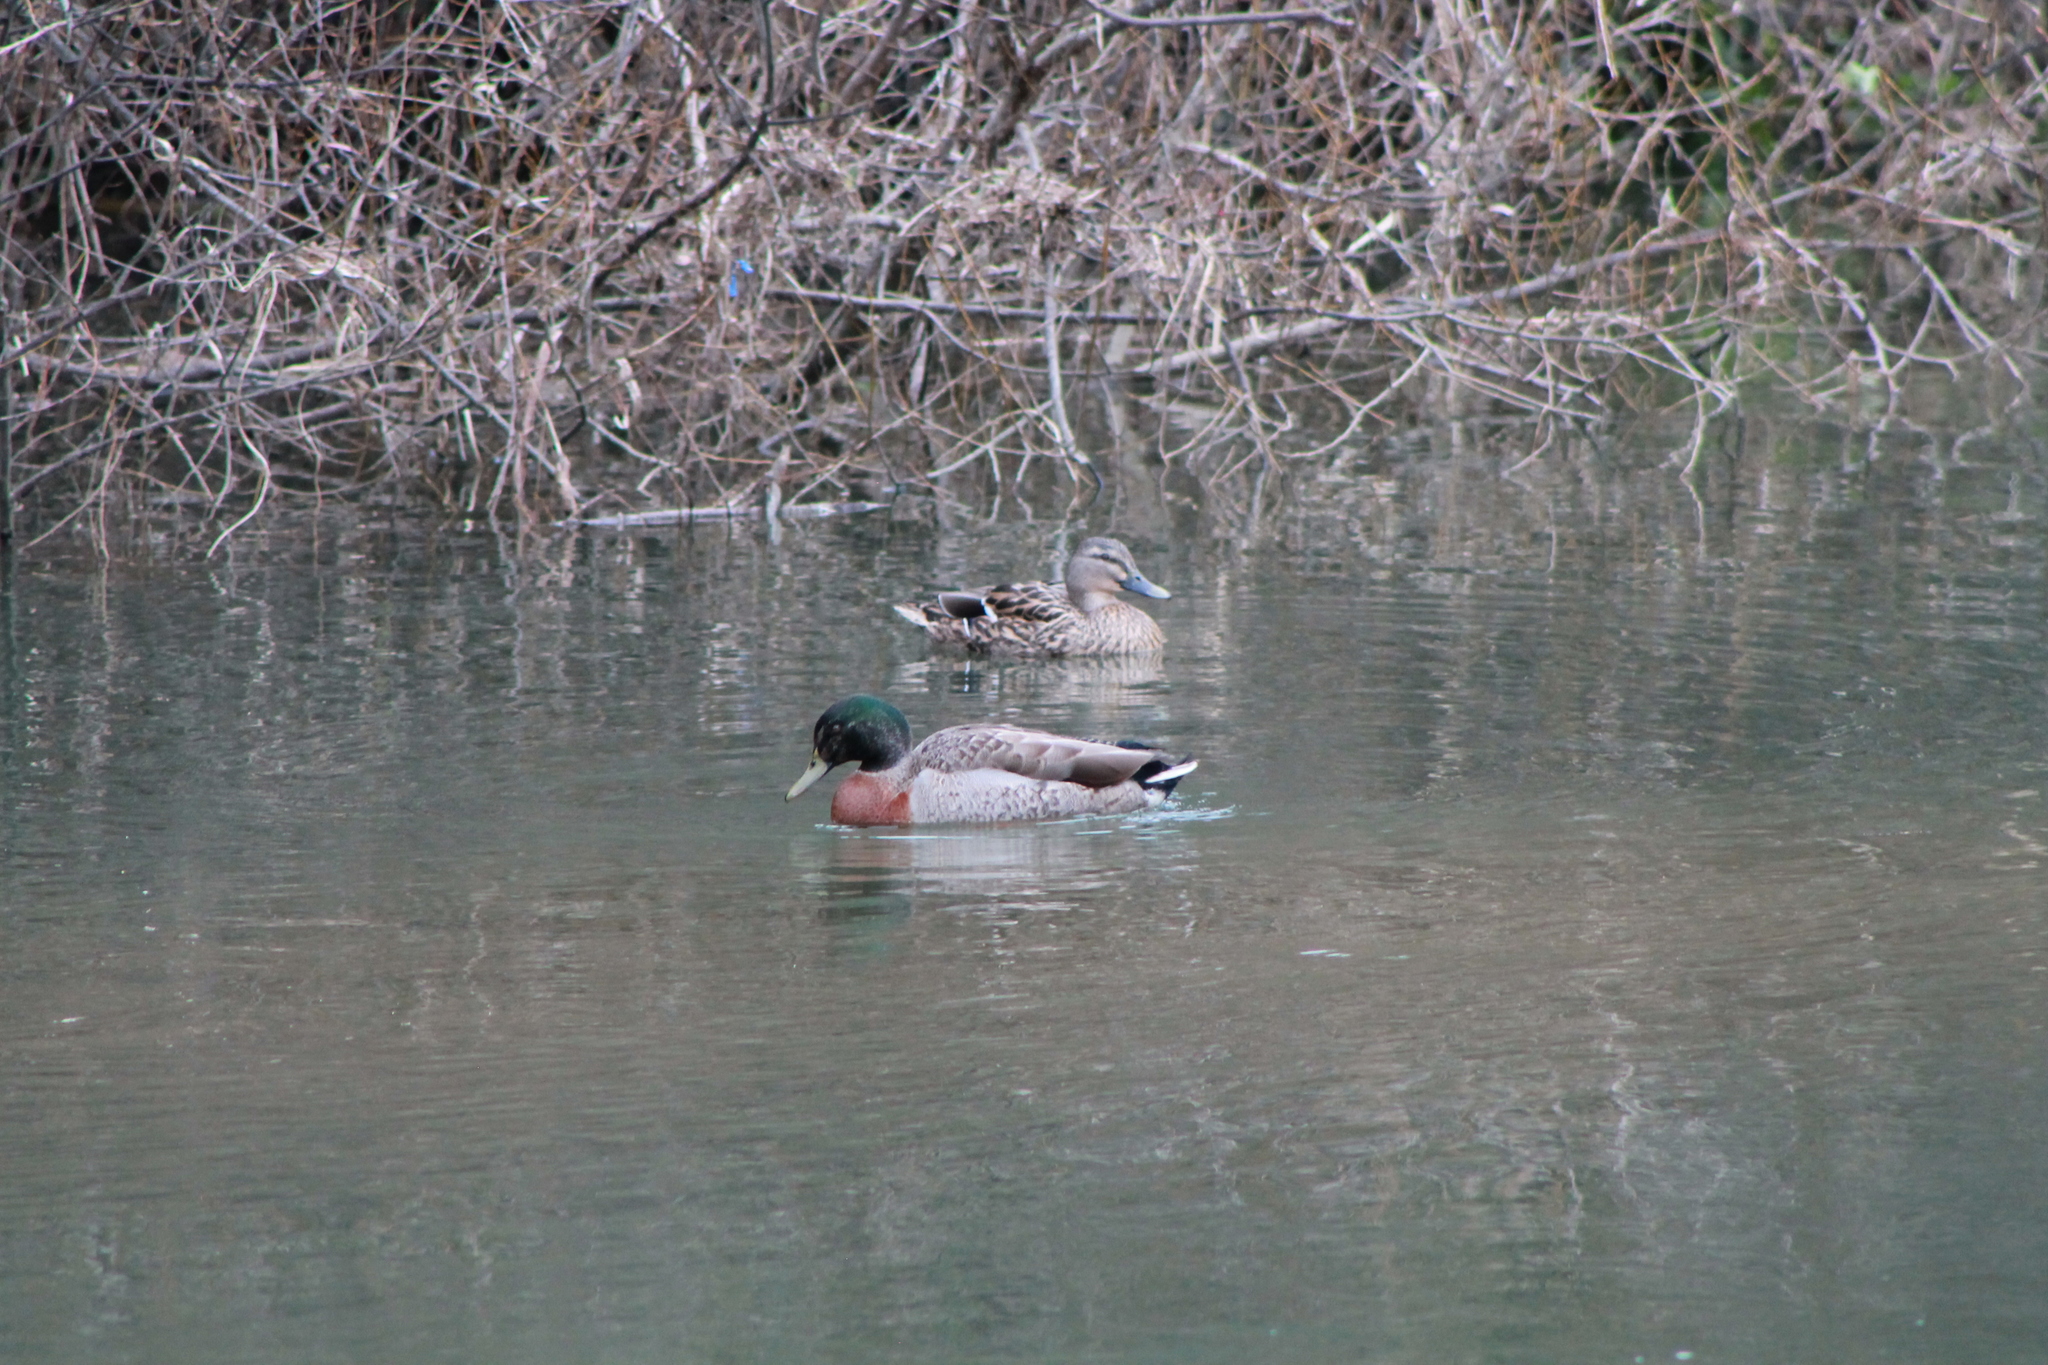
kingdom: Animalia
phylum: Chordata
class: Aves
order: Anseriformes
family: Anatidae
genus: Anas
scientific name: Anas platyrhynchos
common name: Mallard
